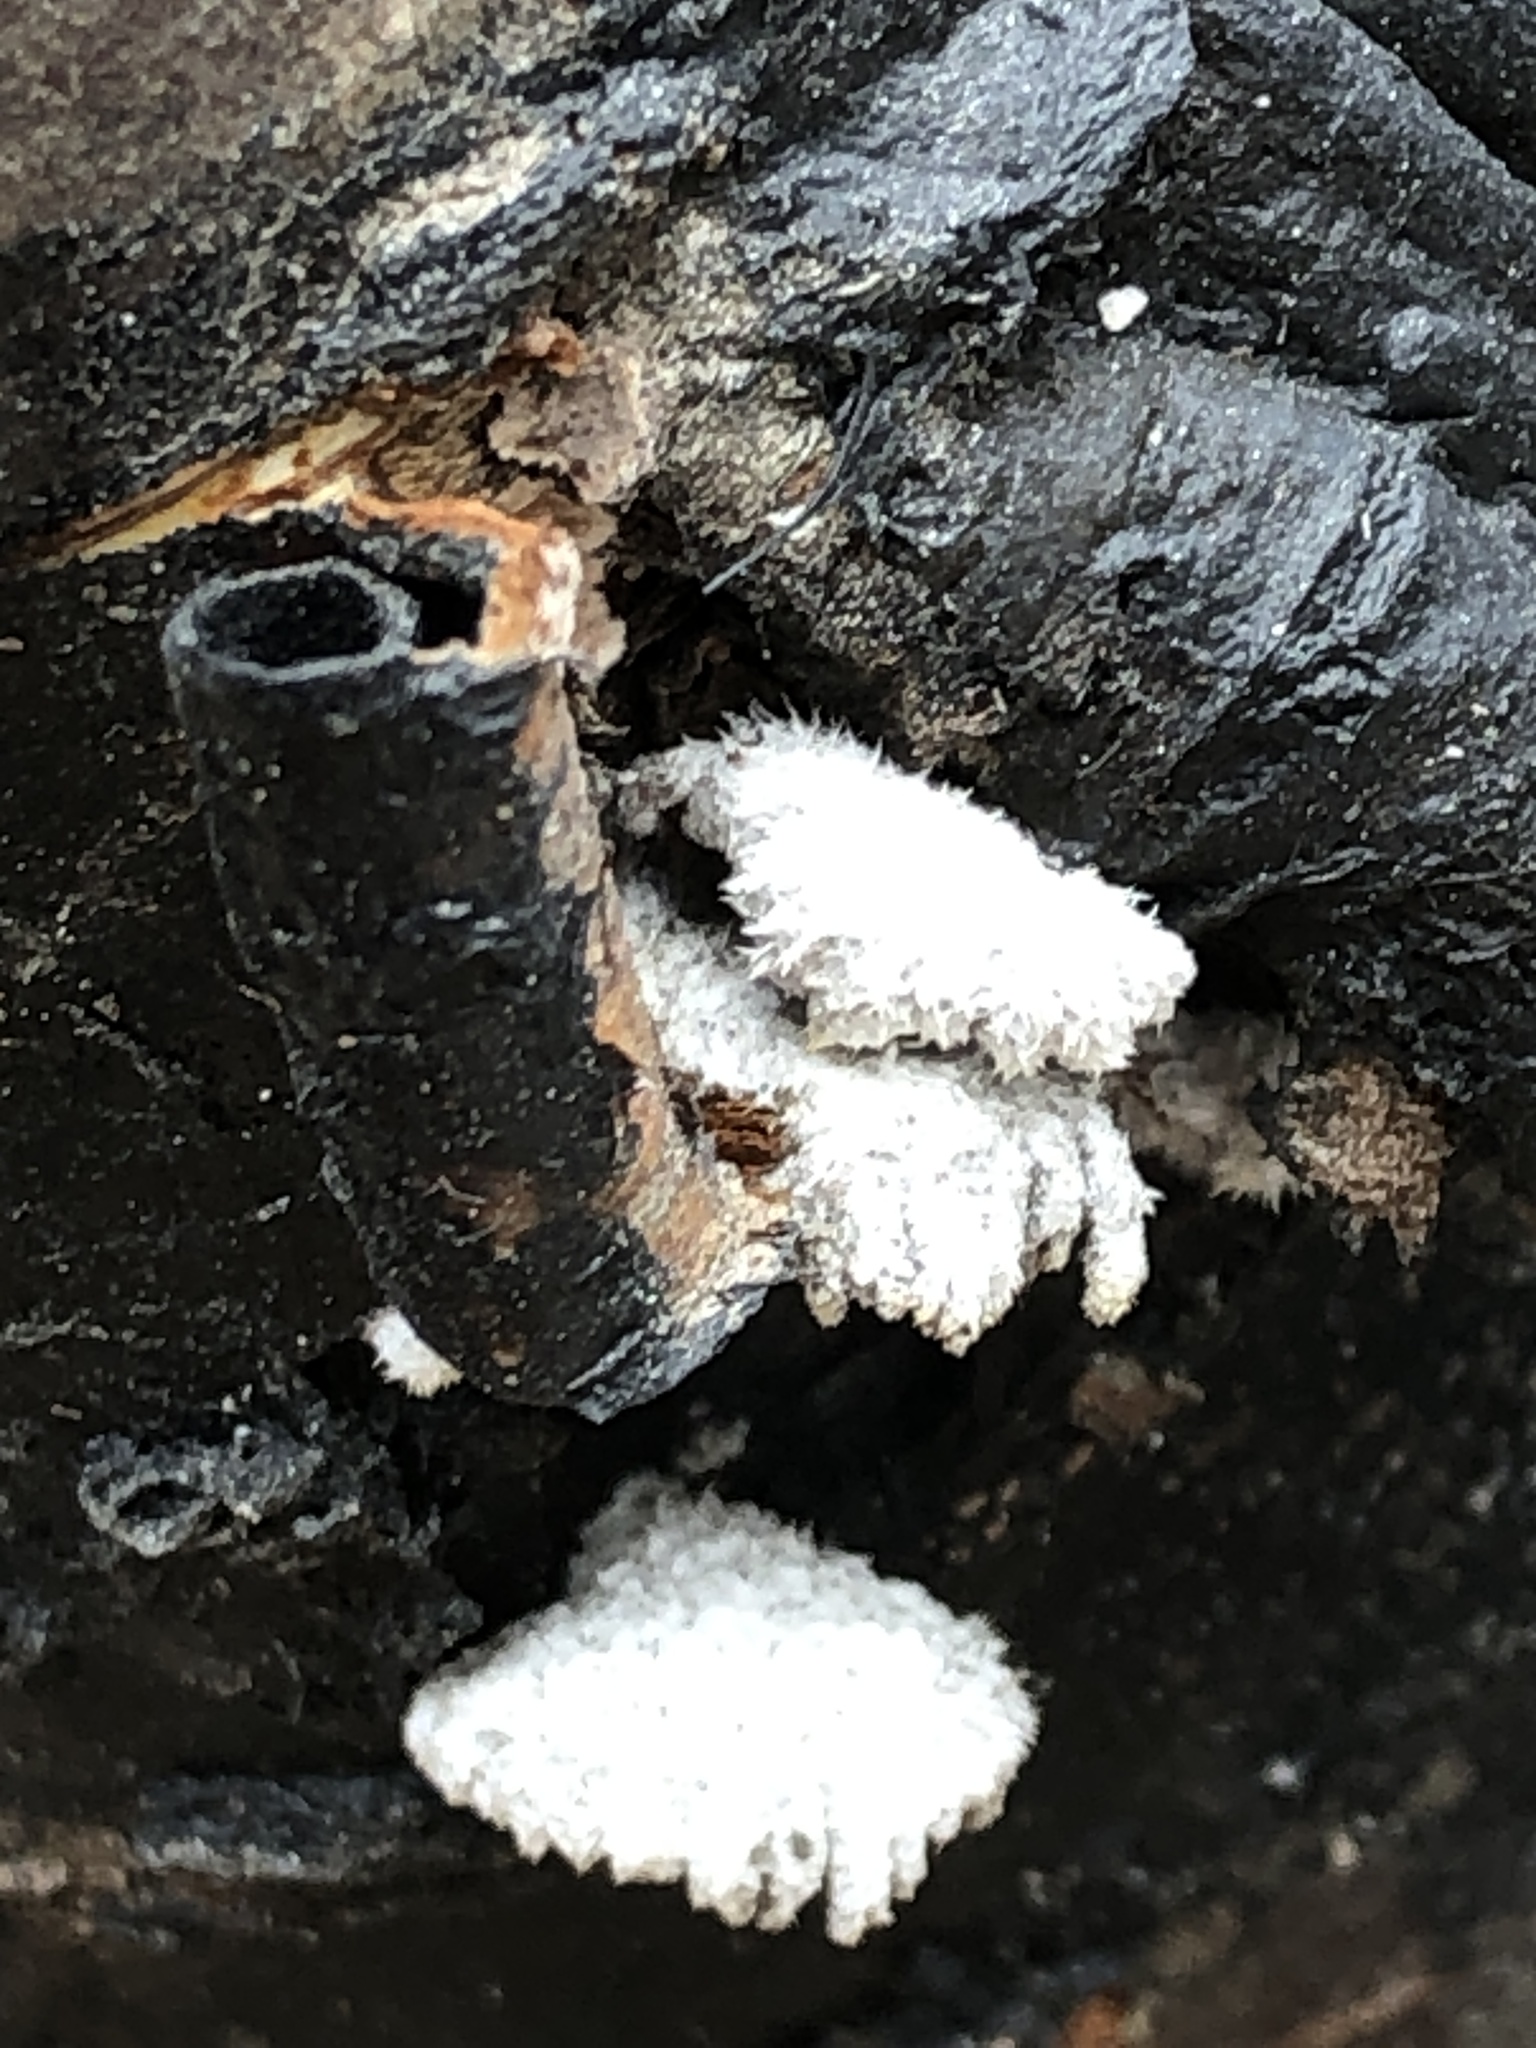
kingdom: Fungi
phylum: Basidiomycota
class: Agaricomycetes
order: Agaricales
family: Schizophyllaceae
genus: Schizophyllum
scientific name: Schizophyllum commune
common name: Common porecrust
